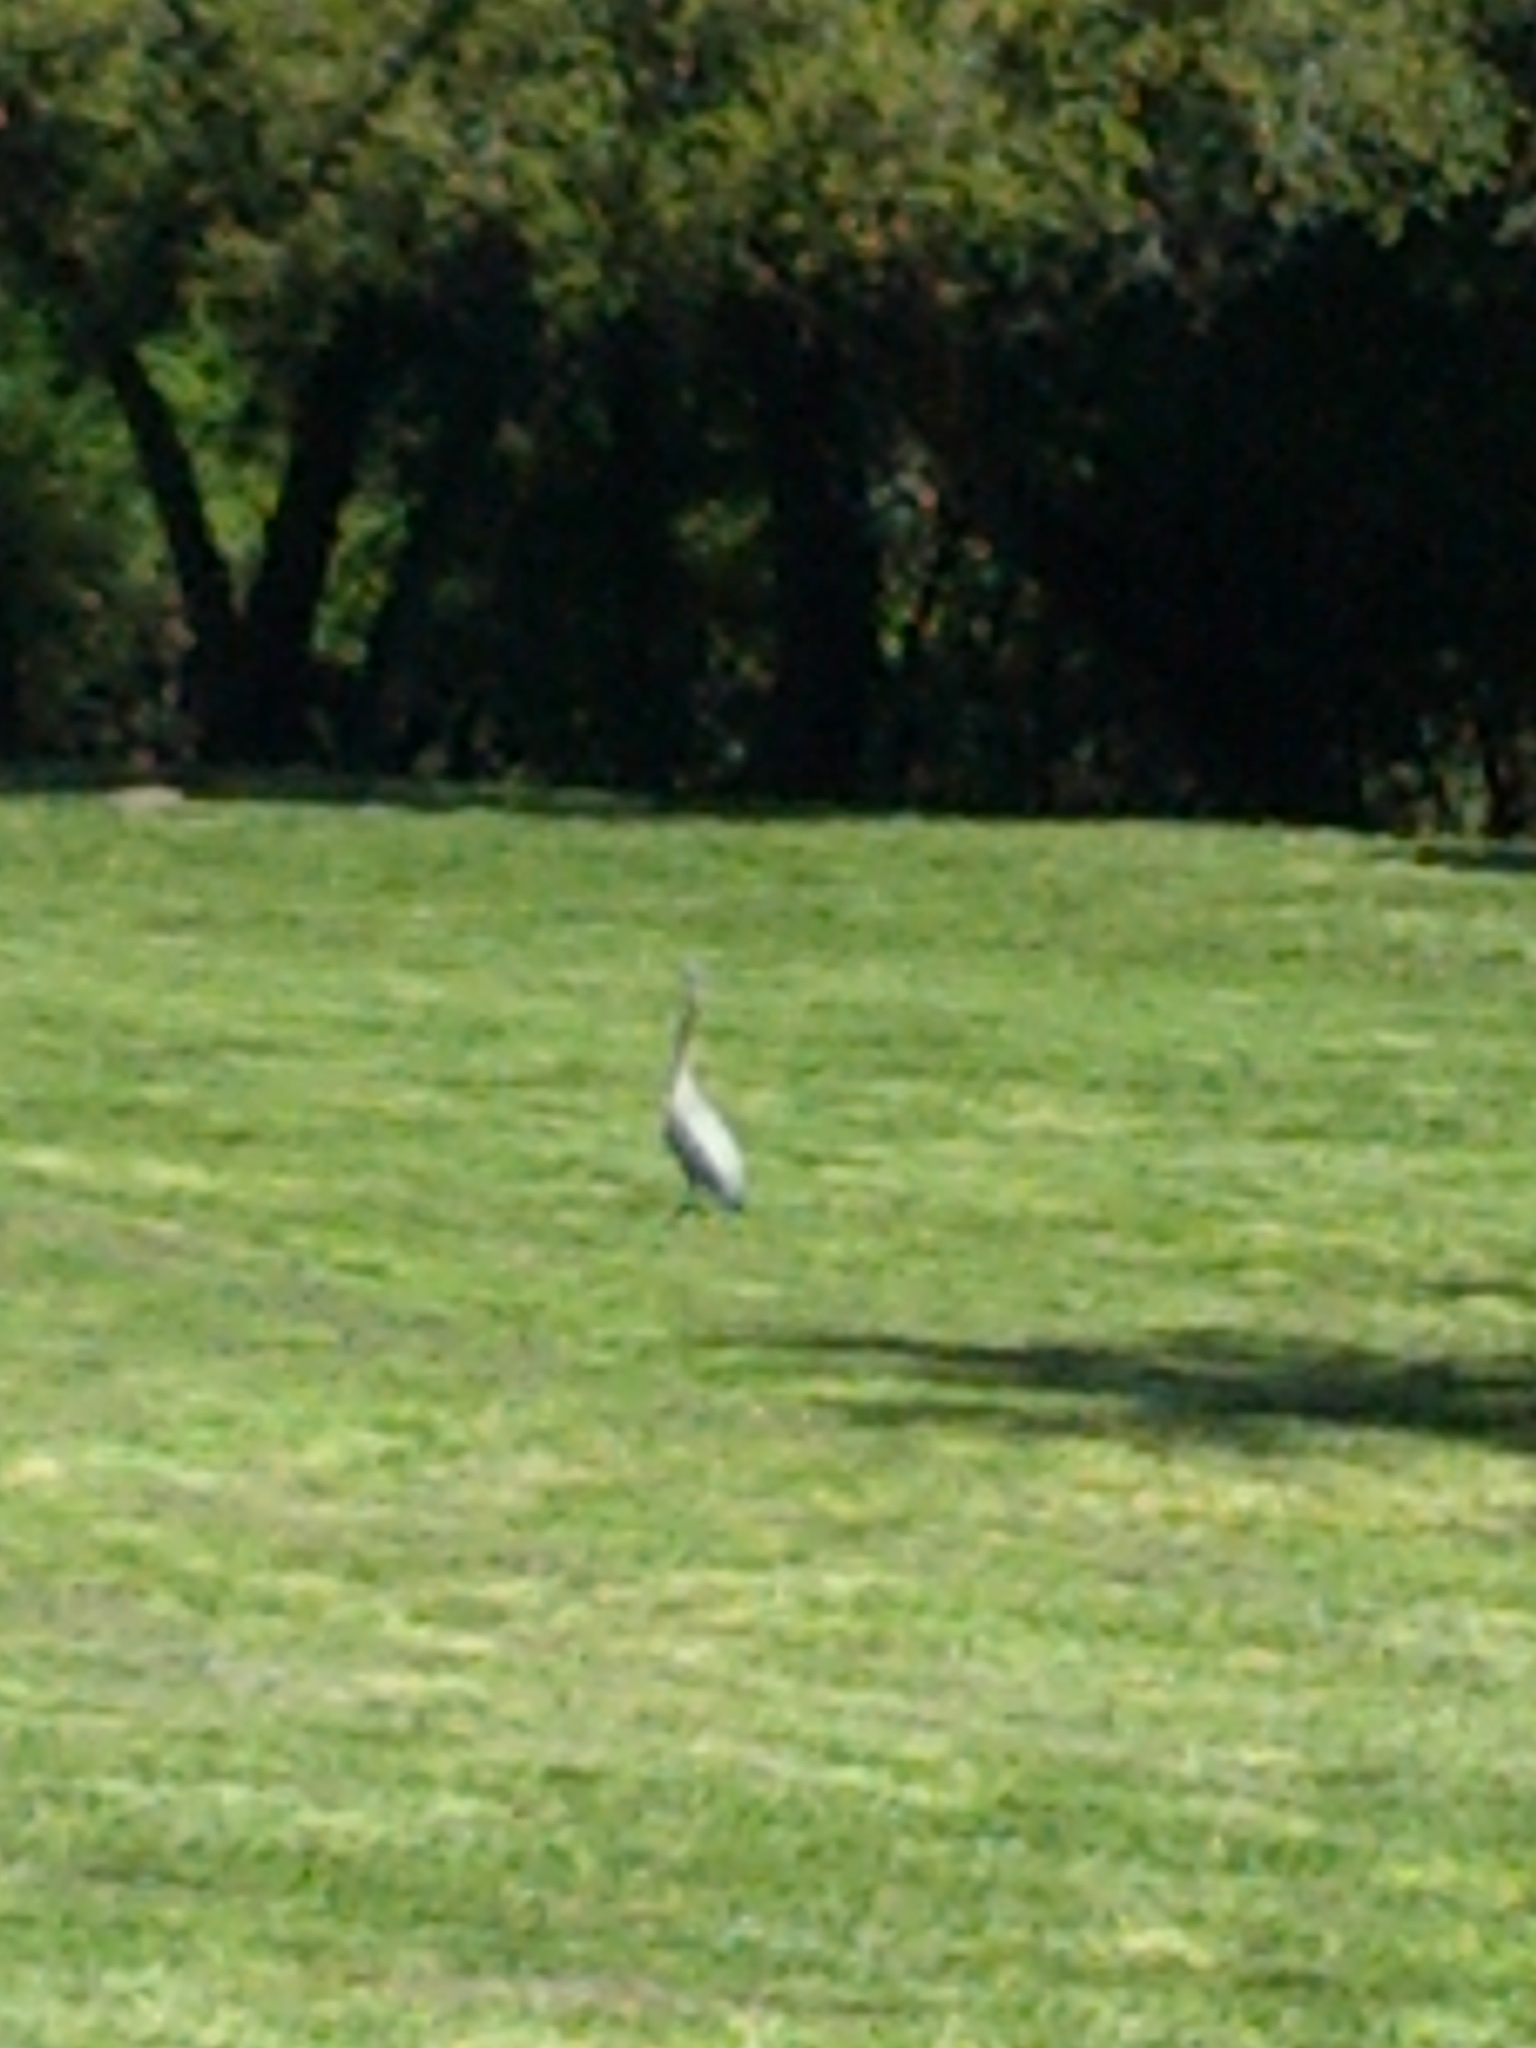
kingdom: Animalia
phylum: Chordata
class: Aves
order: Pelecaniformes
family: Ardeidae
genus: Ardea
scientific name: Ardea herodias
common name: Great blue heron
